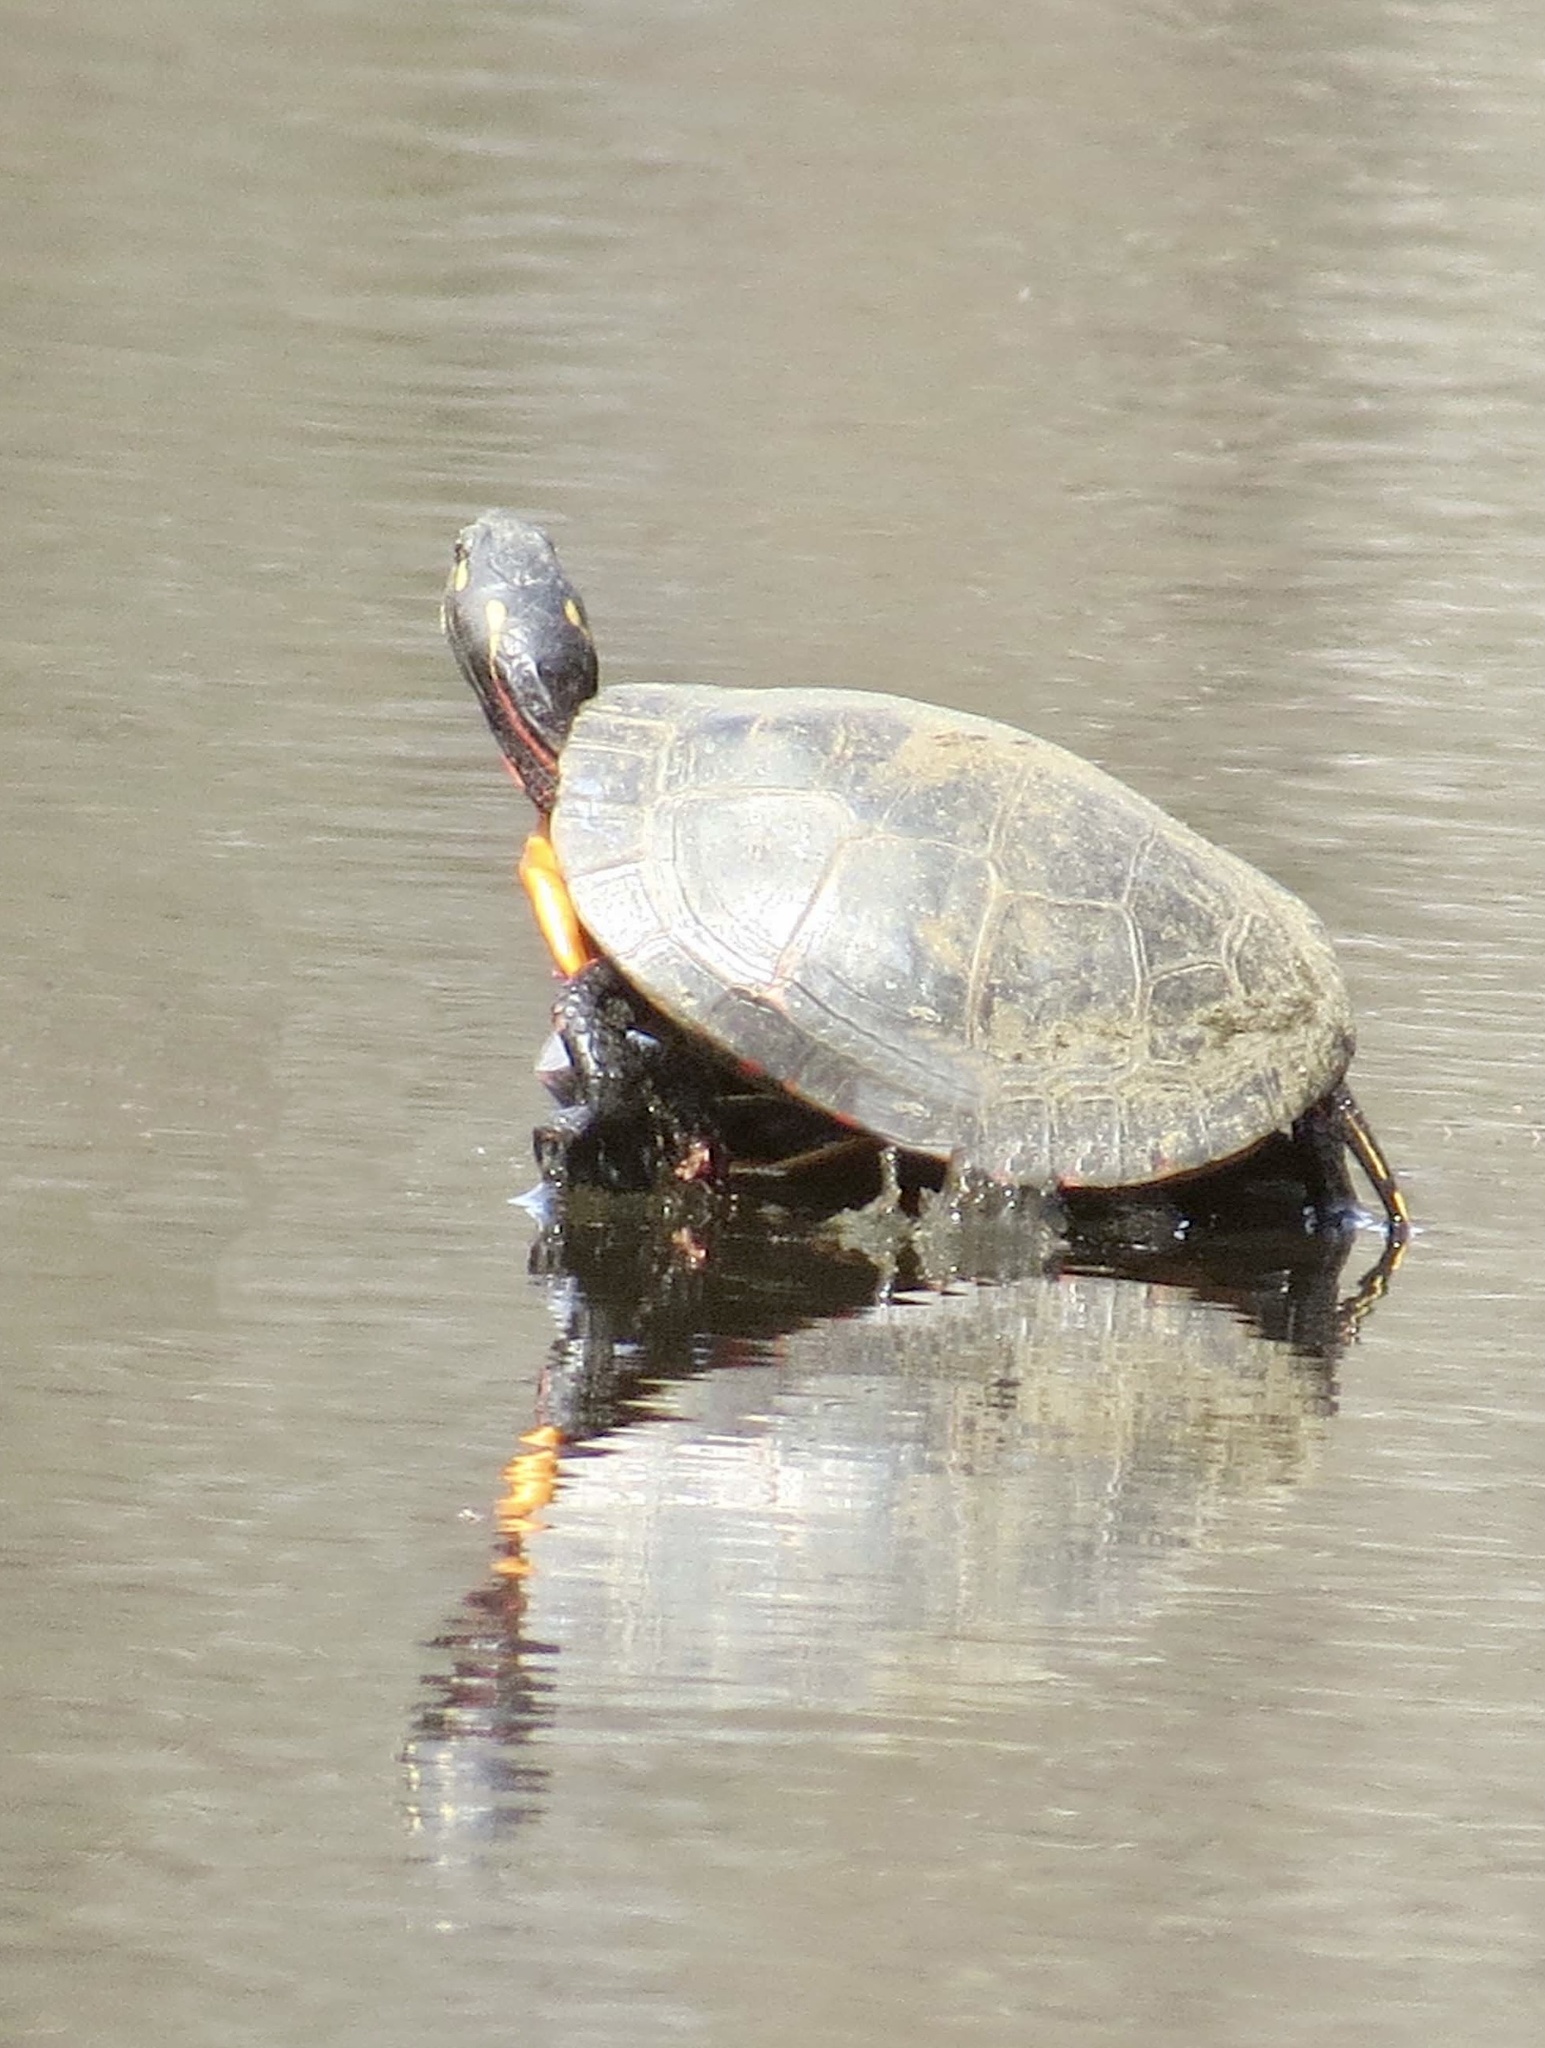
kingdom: Animalia
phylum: Chordata
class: Testudines
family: Emydidae
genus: Chrysemys
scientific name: Chrysemys picta
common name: Painted turtle
